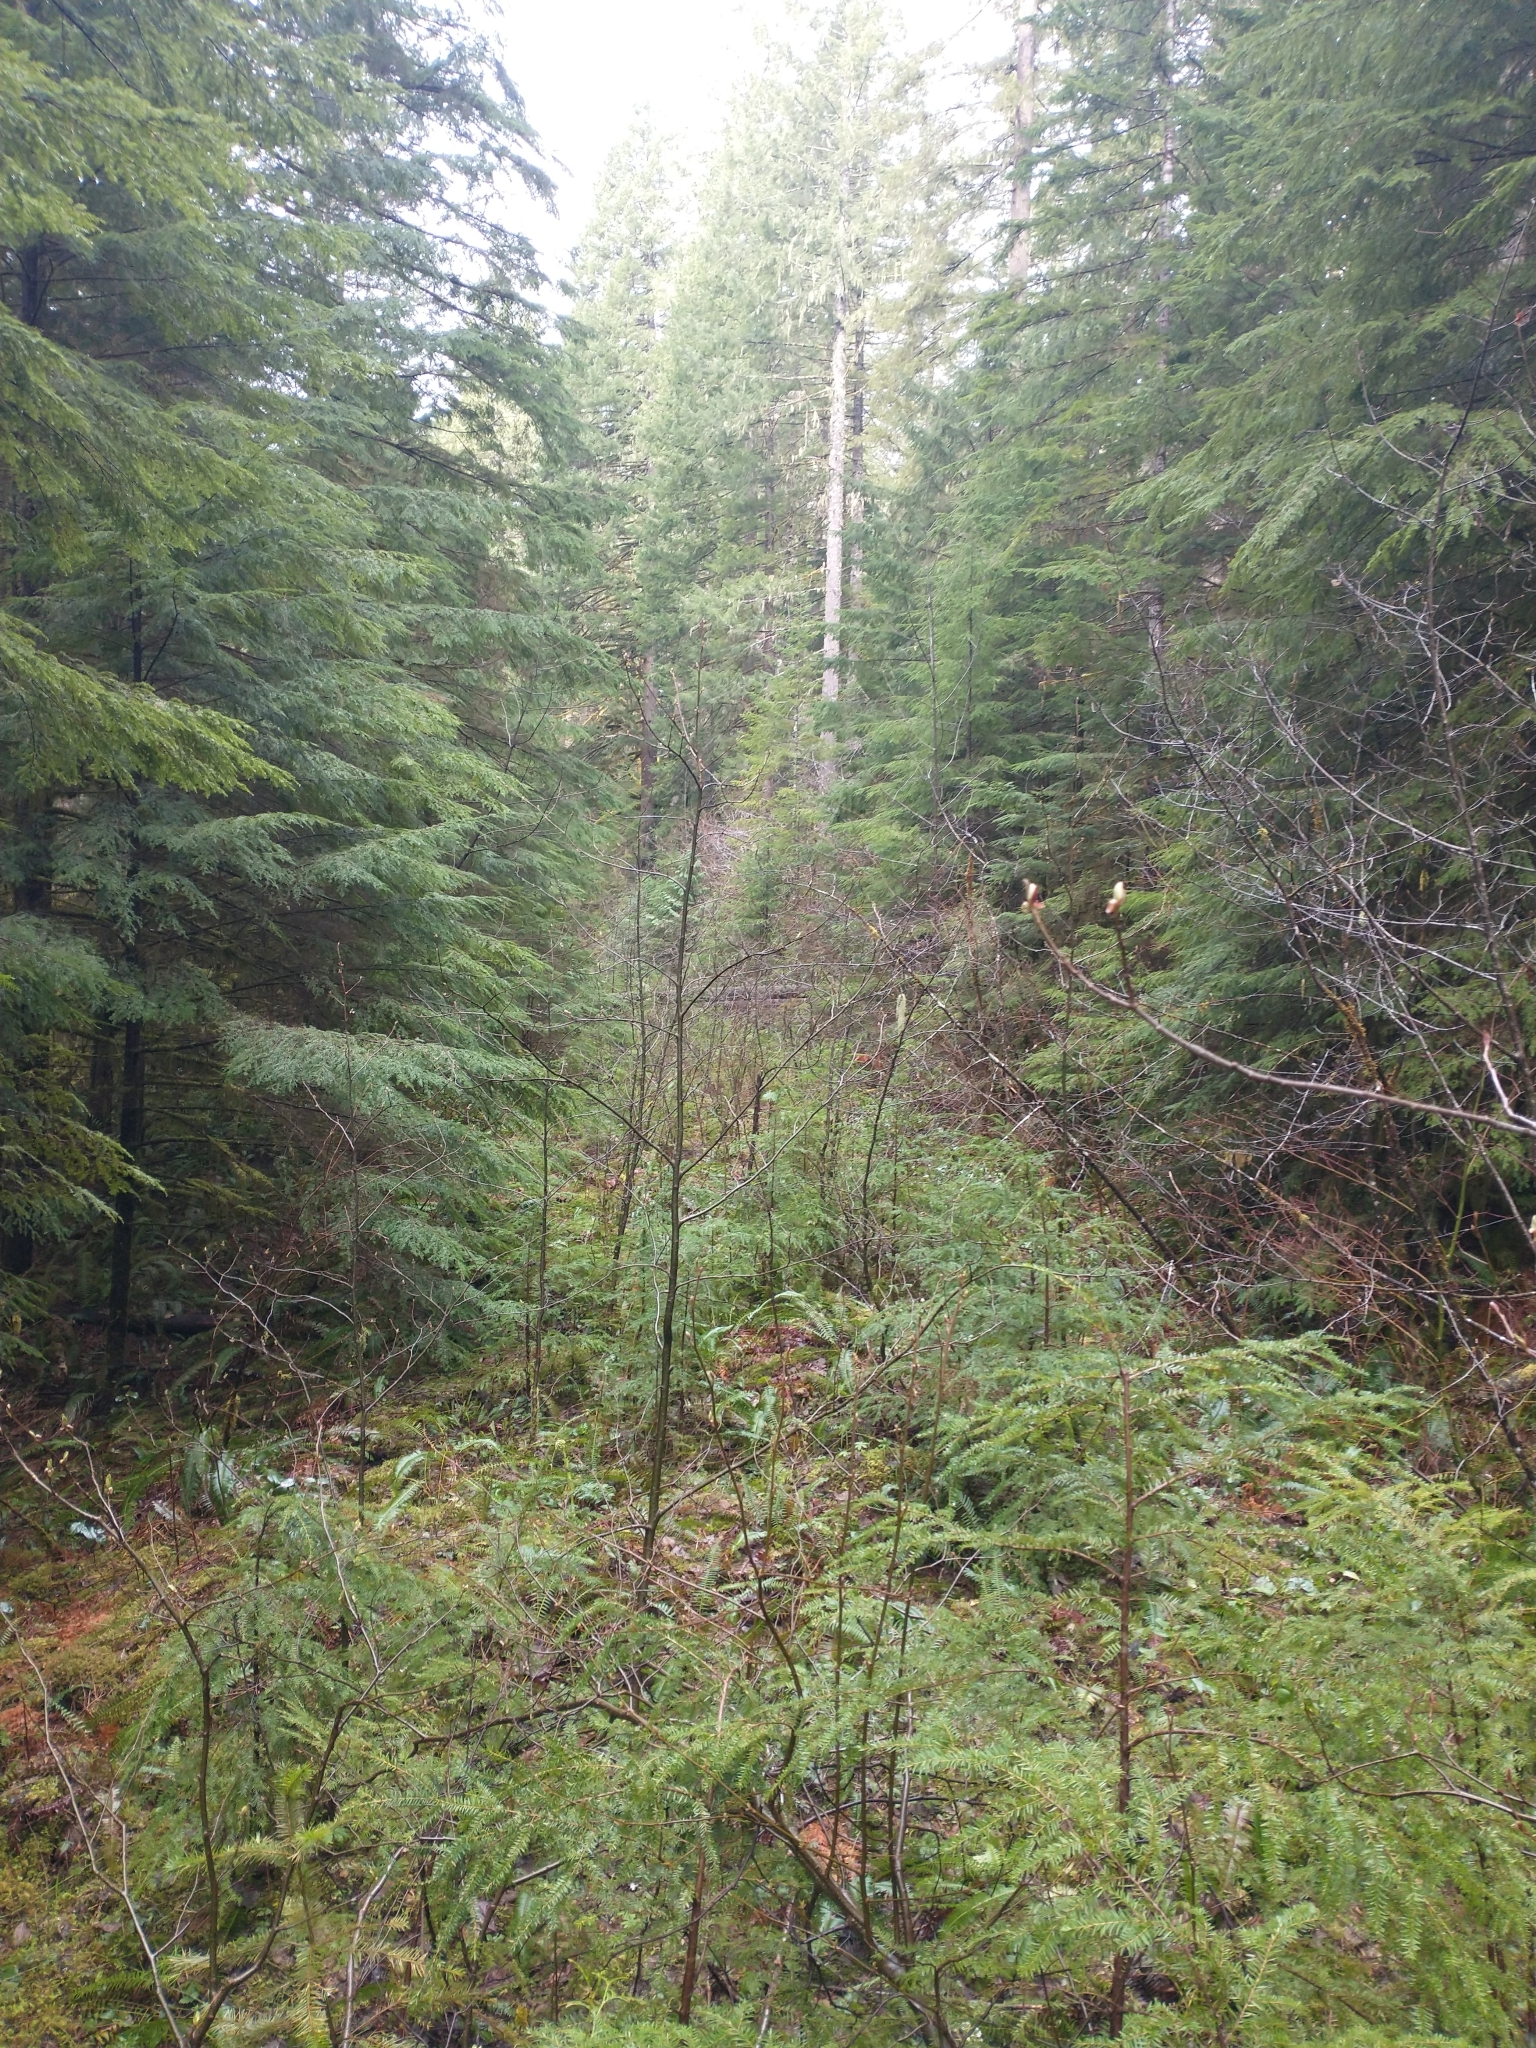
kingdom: Plantae
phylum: Tracheophyta
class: Pinopsida
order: Pinales
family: Pinaceae
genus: Tsuga
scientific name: Tsuga heterophylla
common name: Western hemlock
